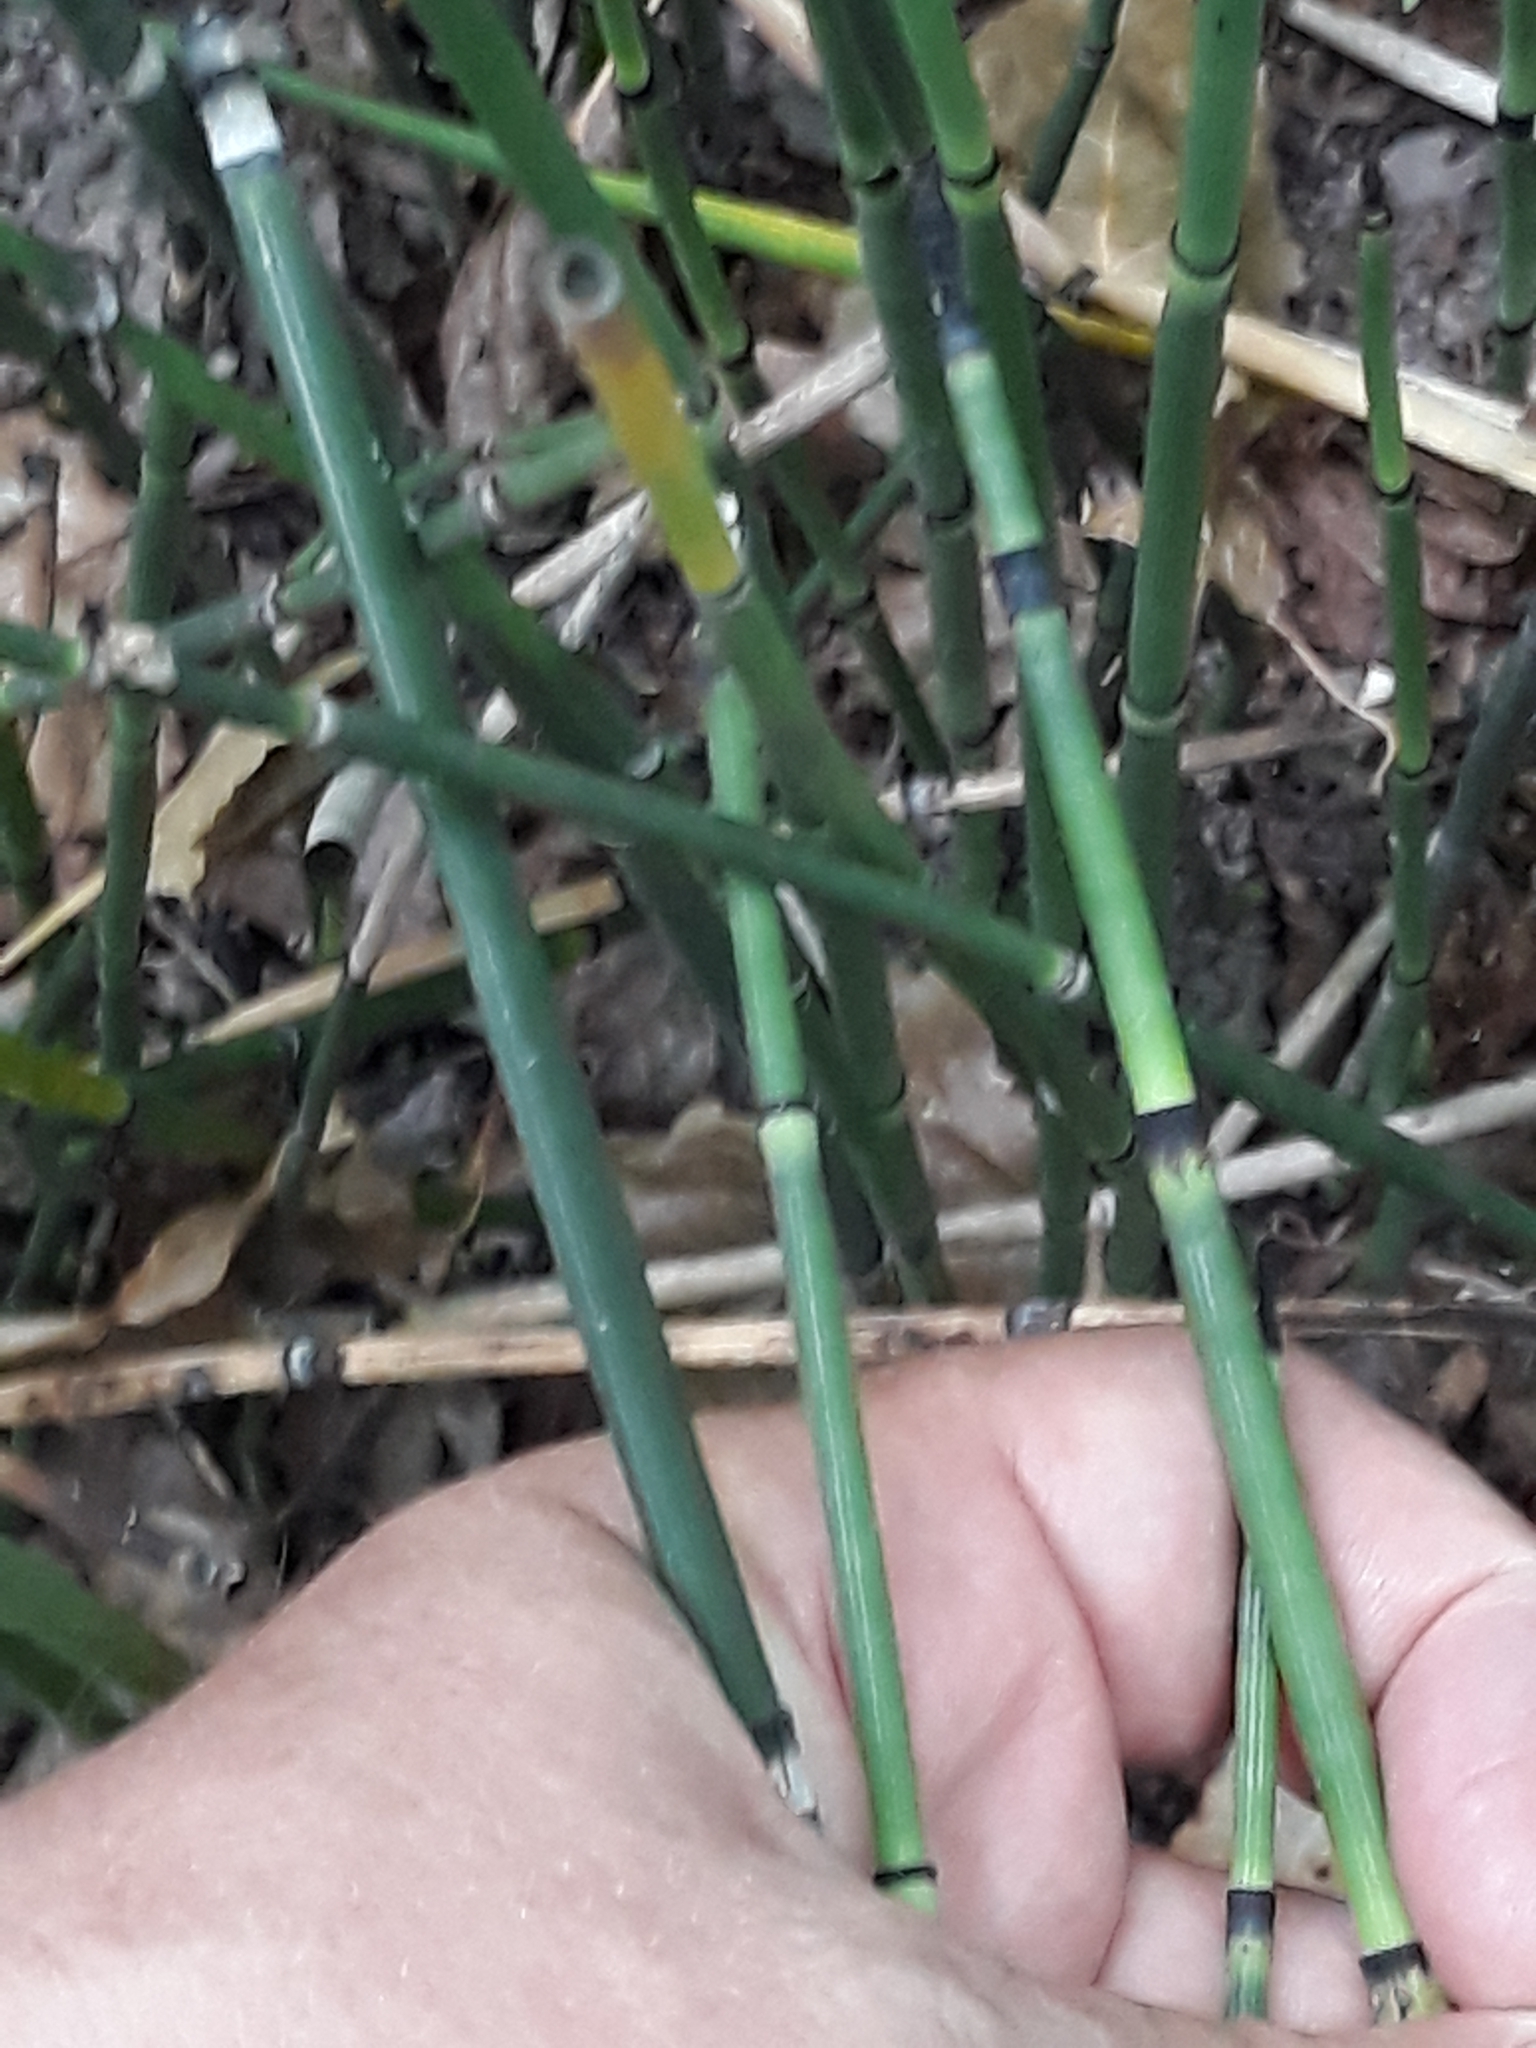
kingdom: Plantae
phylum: Tracheophyta
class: Polypodiopsida
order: Equisetales
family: Equisetaceae
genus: Equisetum
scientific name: Equisetum hyemale
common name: Rough horsetail
